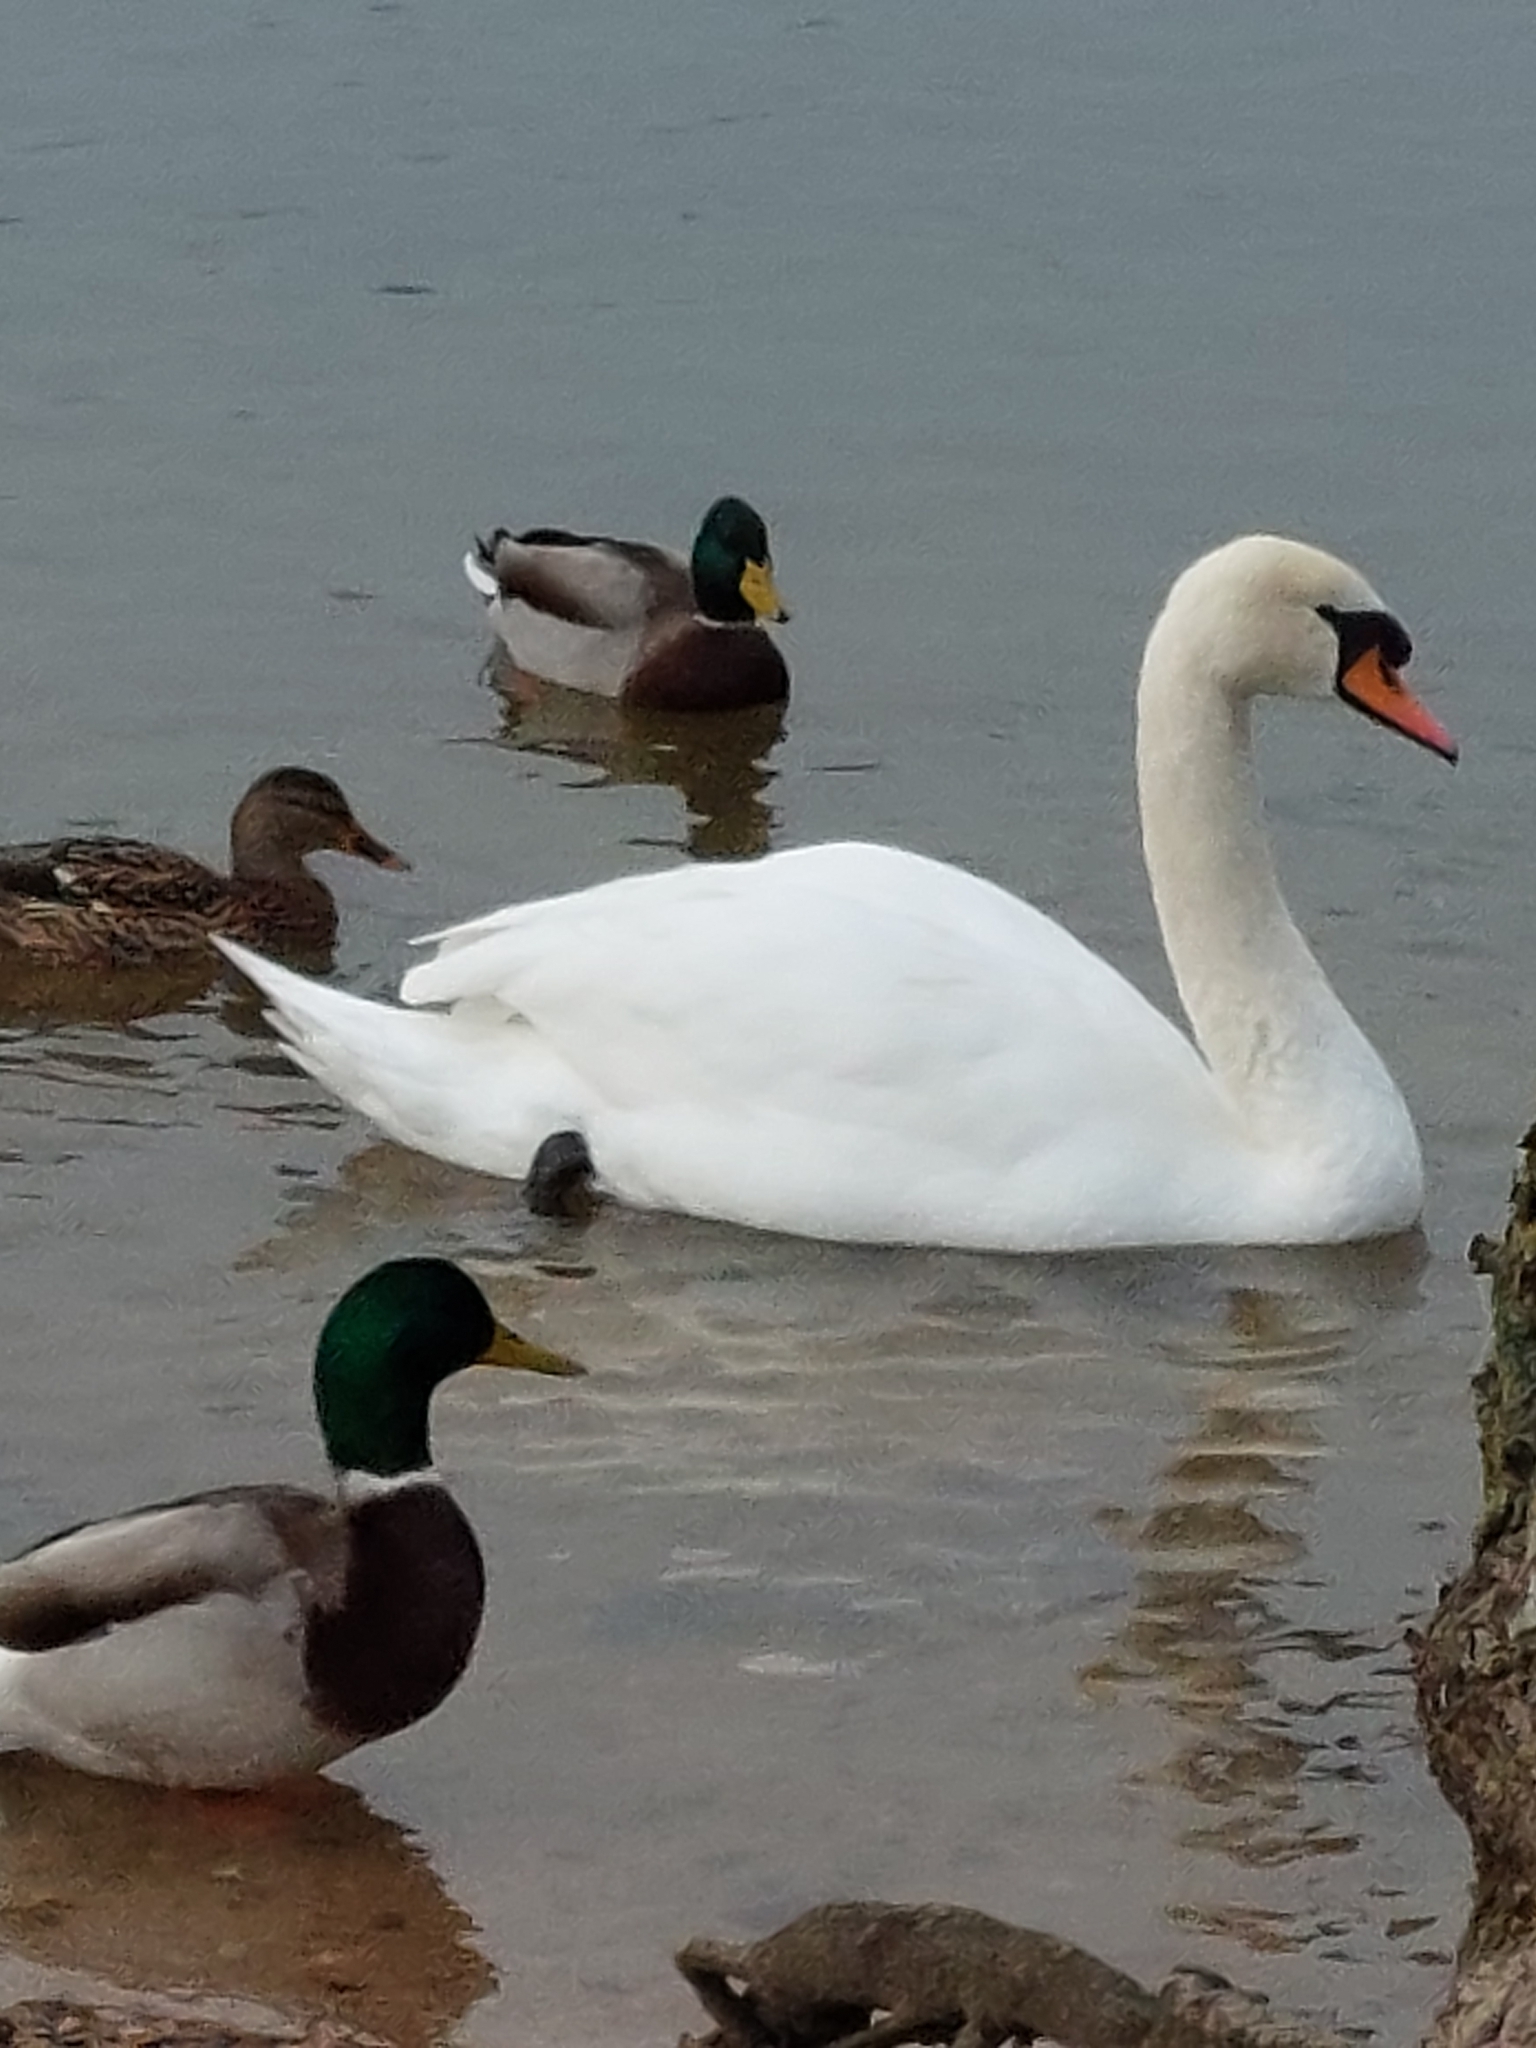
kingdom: Animalia
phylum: Chordata
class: Aves
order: Anseriformes
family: Anatidae
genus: Cygnus
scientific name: Cygnus olor
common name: Mute swan
